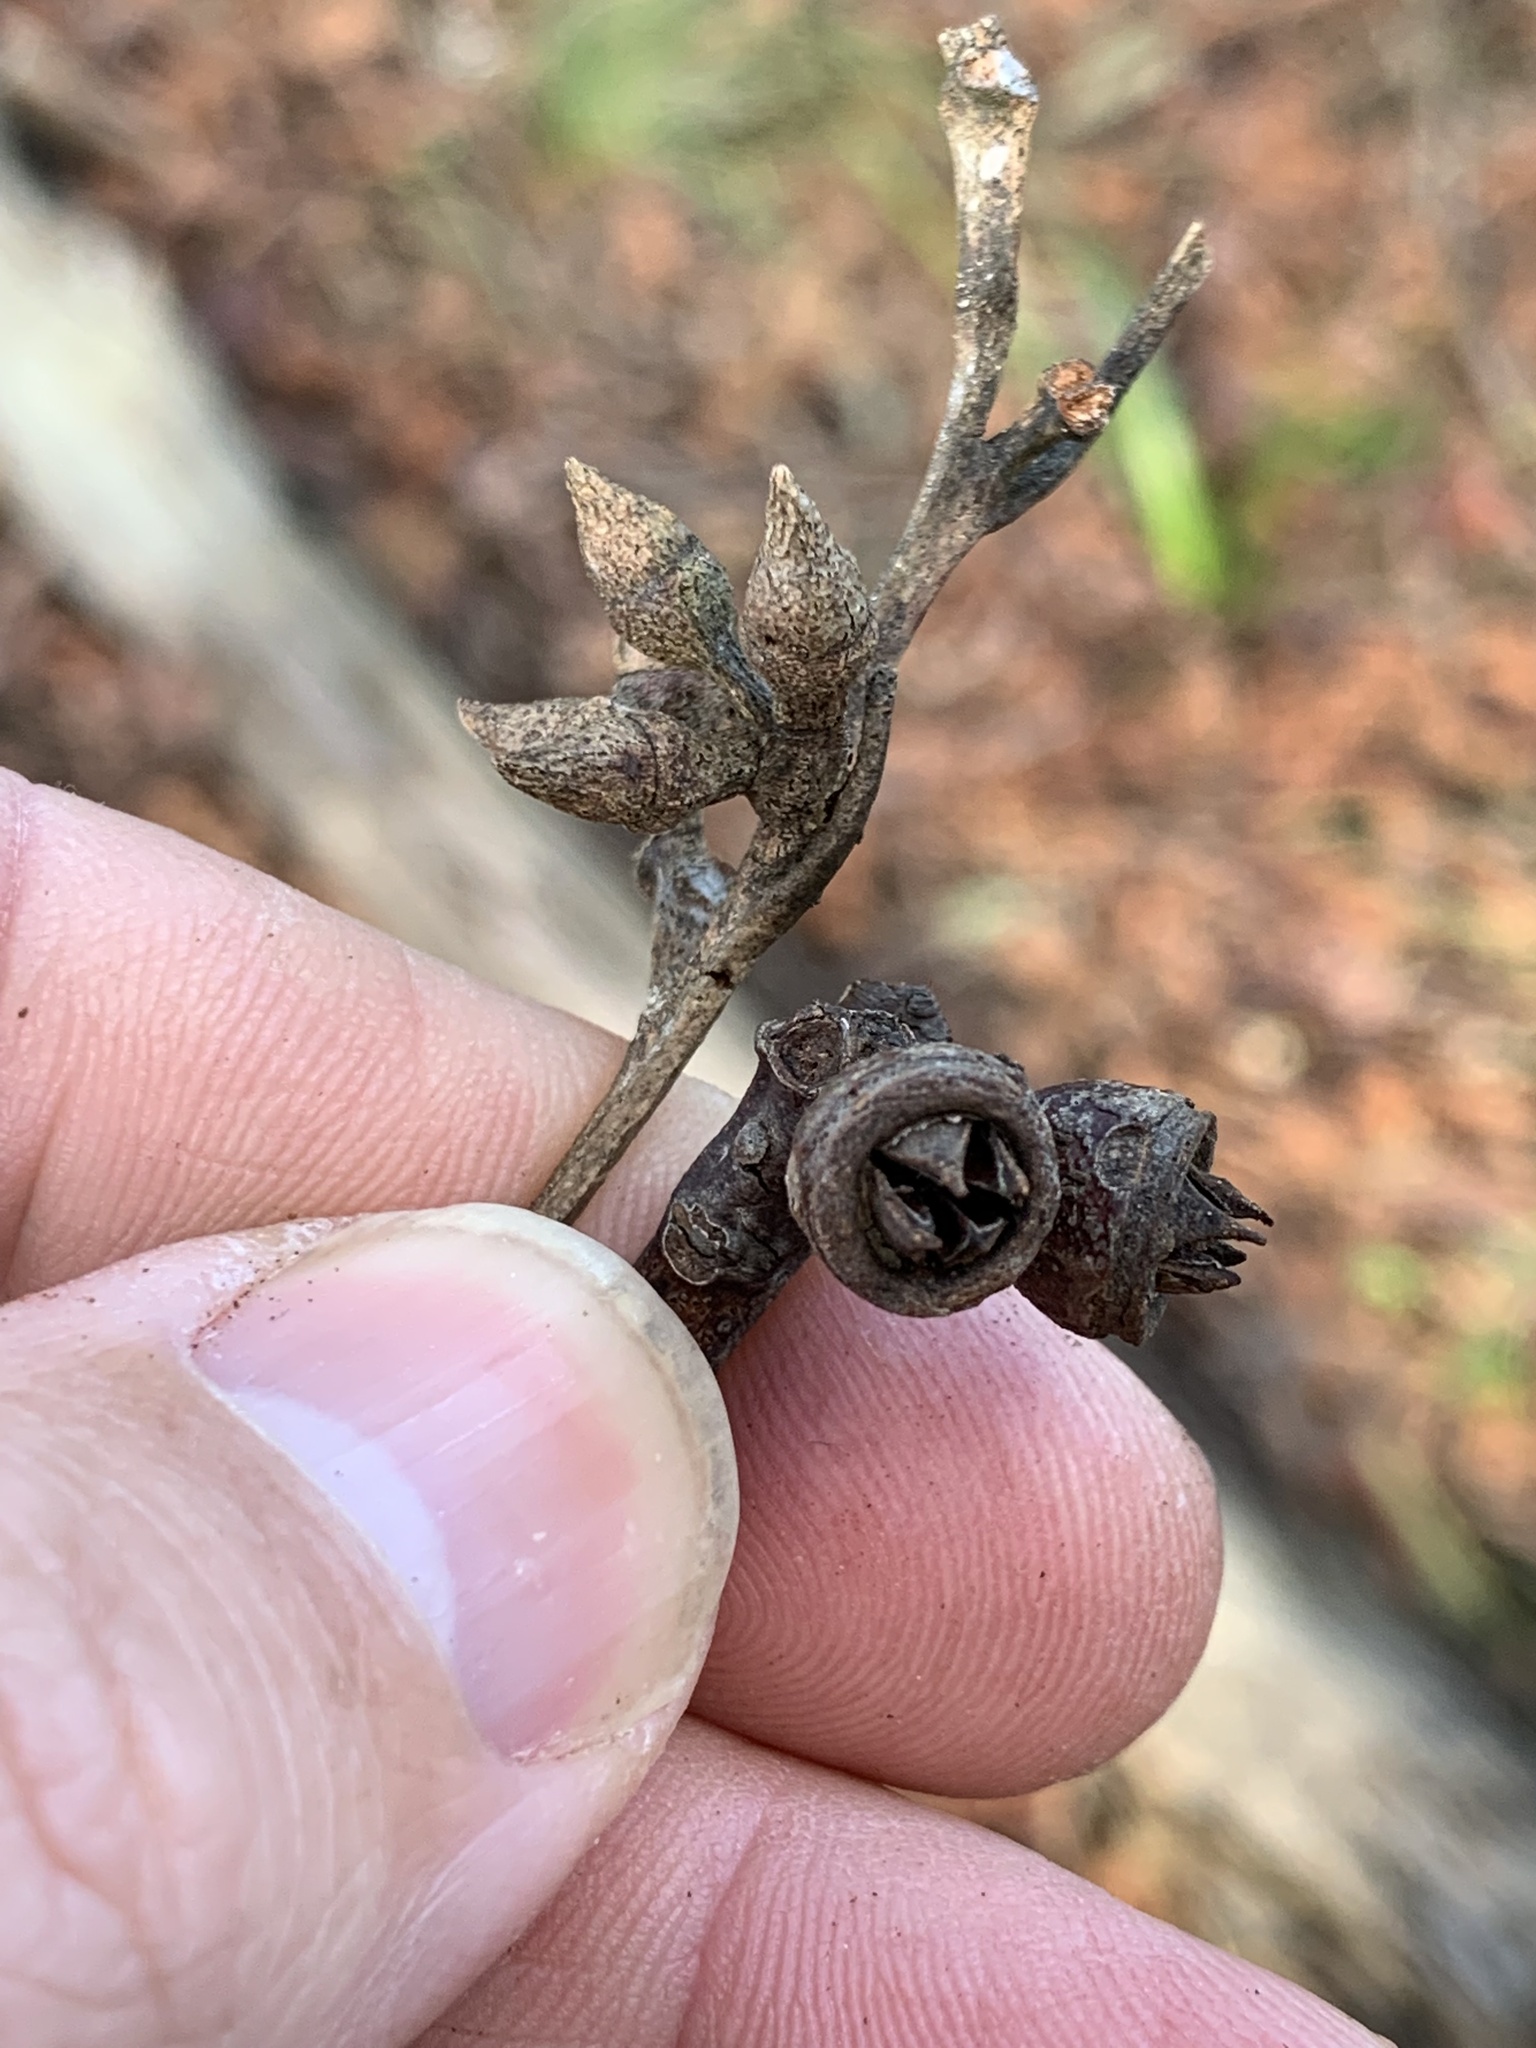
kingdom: Plantae
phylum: Tracheophyta
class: Magnoliopsida
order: Myrtales
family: Myrtaceae
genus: Eucalyptus
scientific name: Eucalyptus notabilis
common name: Blue mountains-mahogany
